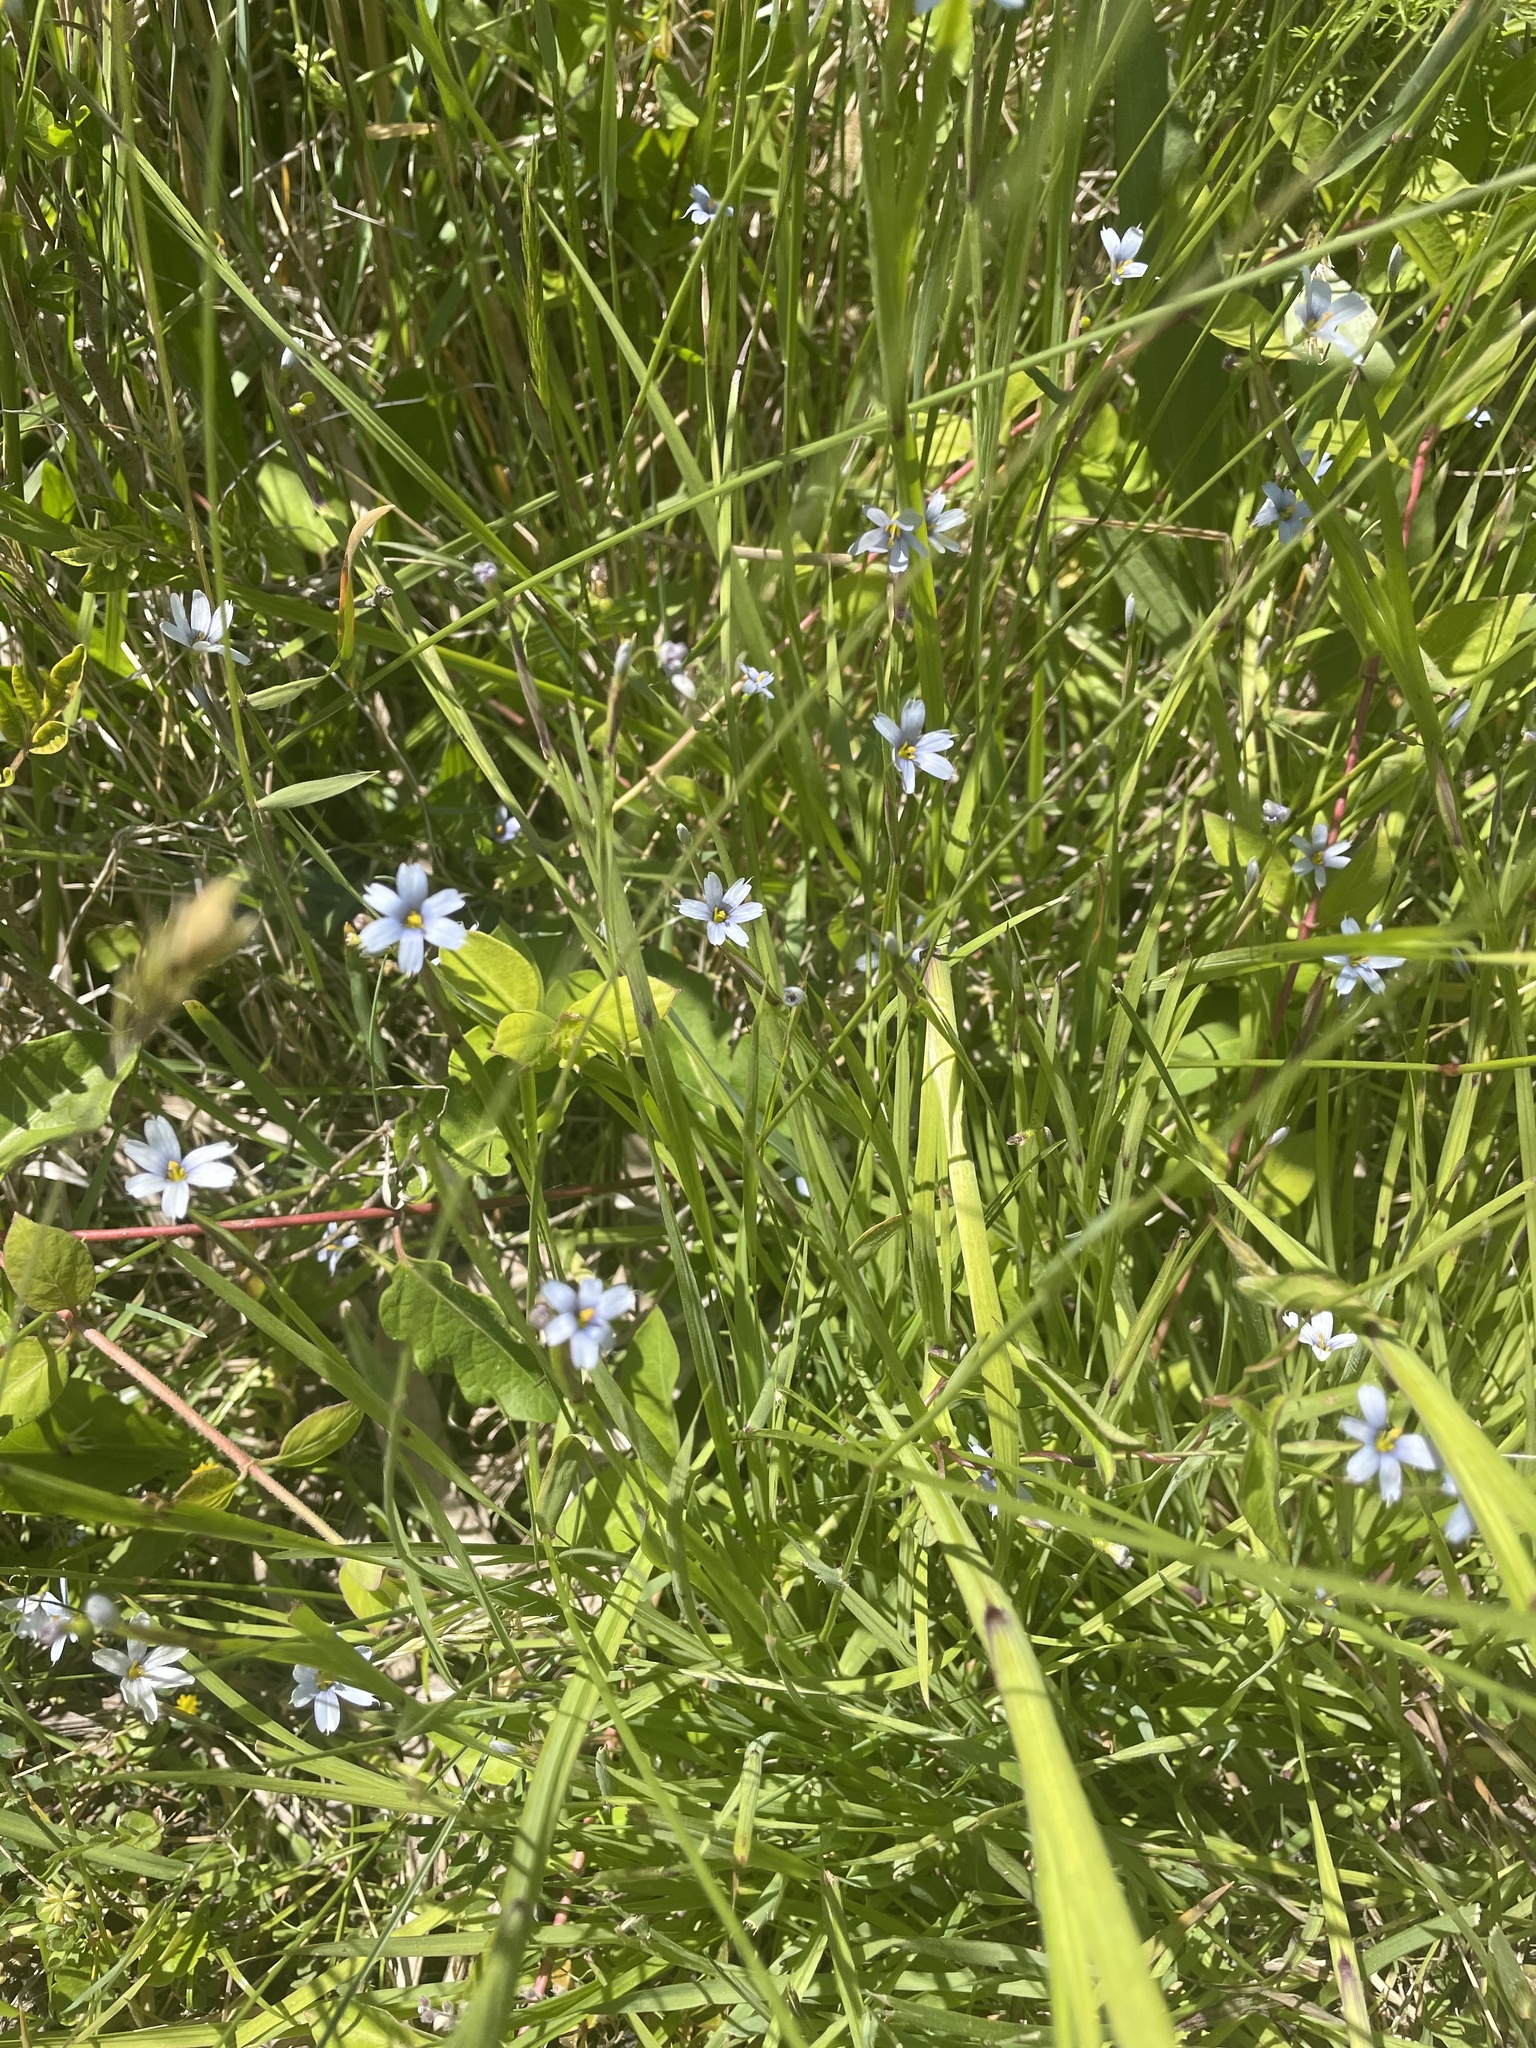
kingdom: Plantae
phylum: Tracheophyta
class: Liliopsida
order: Asparagales
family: Iridaceae
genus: Sisyrinchium
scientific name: Sisyrinchium angustifolium
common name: Narrow-leaf blue-eyed-grass
